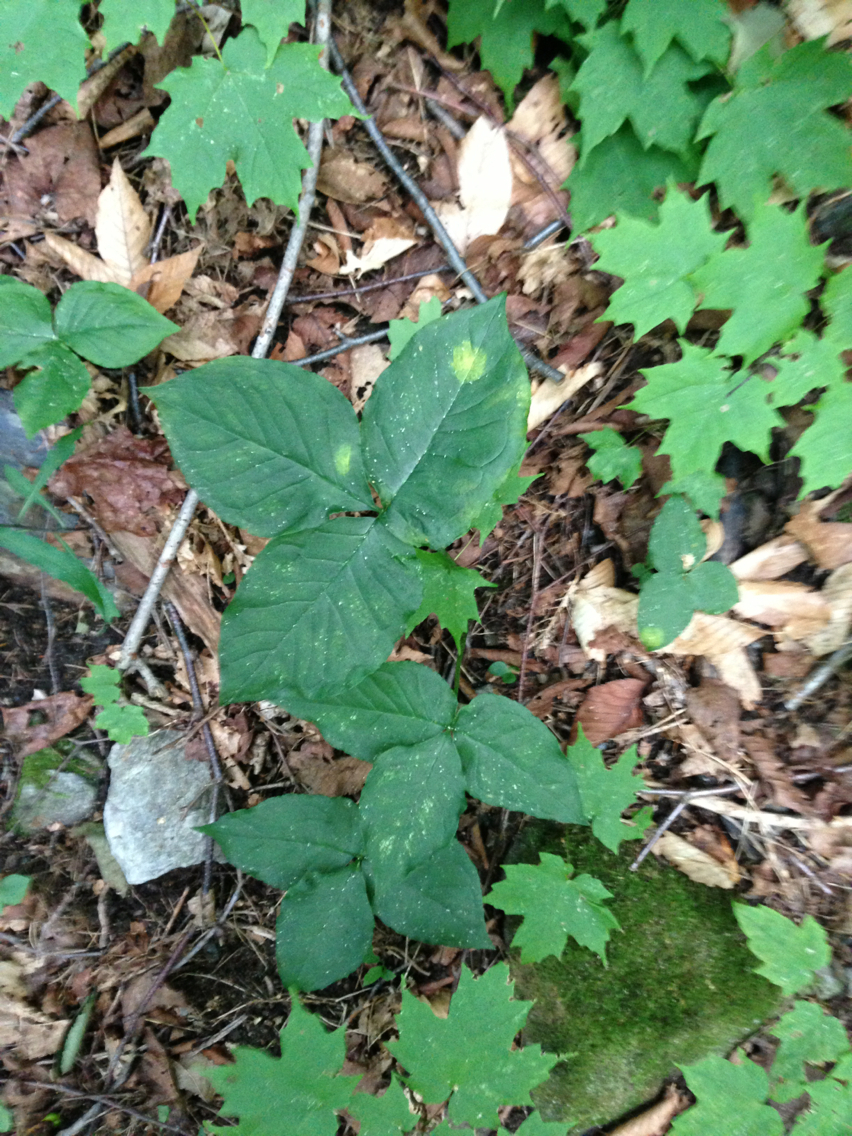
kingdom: Plantae
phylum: Tracheophyta
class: Liliopsida
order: Alismatales
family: Araceae
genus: Arisaema
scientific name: Arisaema triphyllum
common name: Jack-in-the-pulpit
